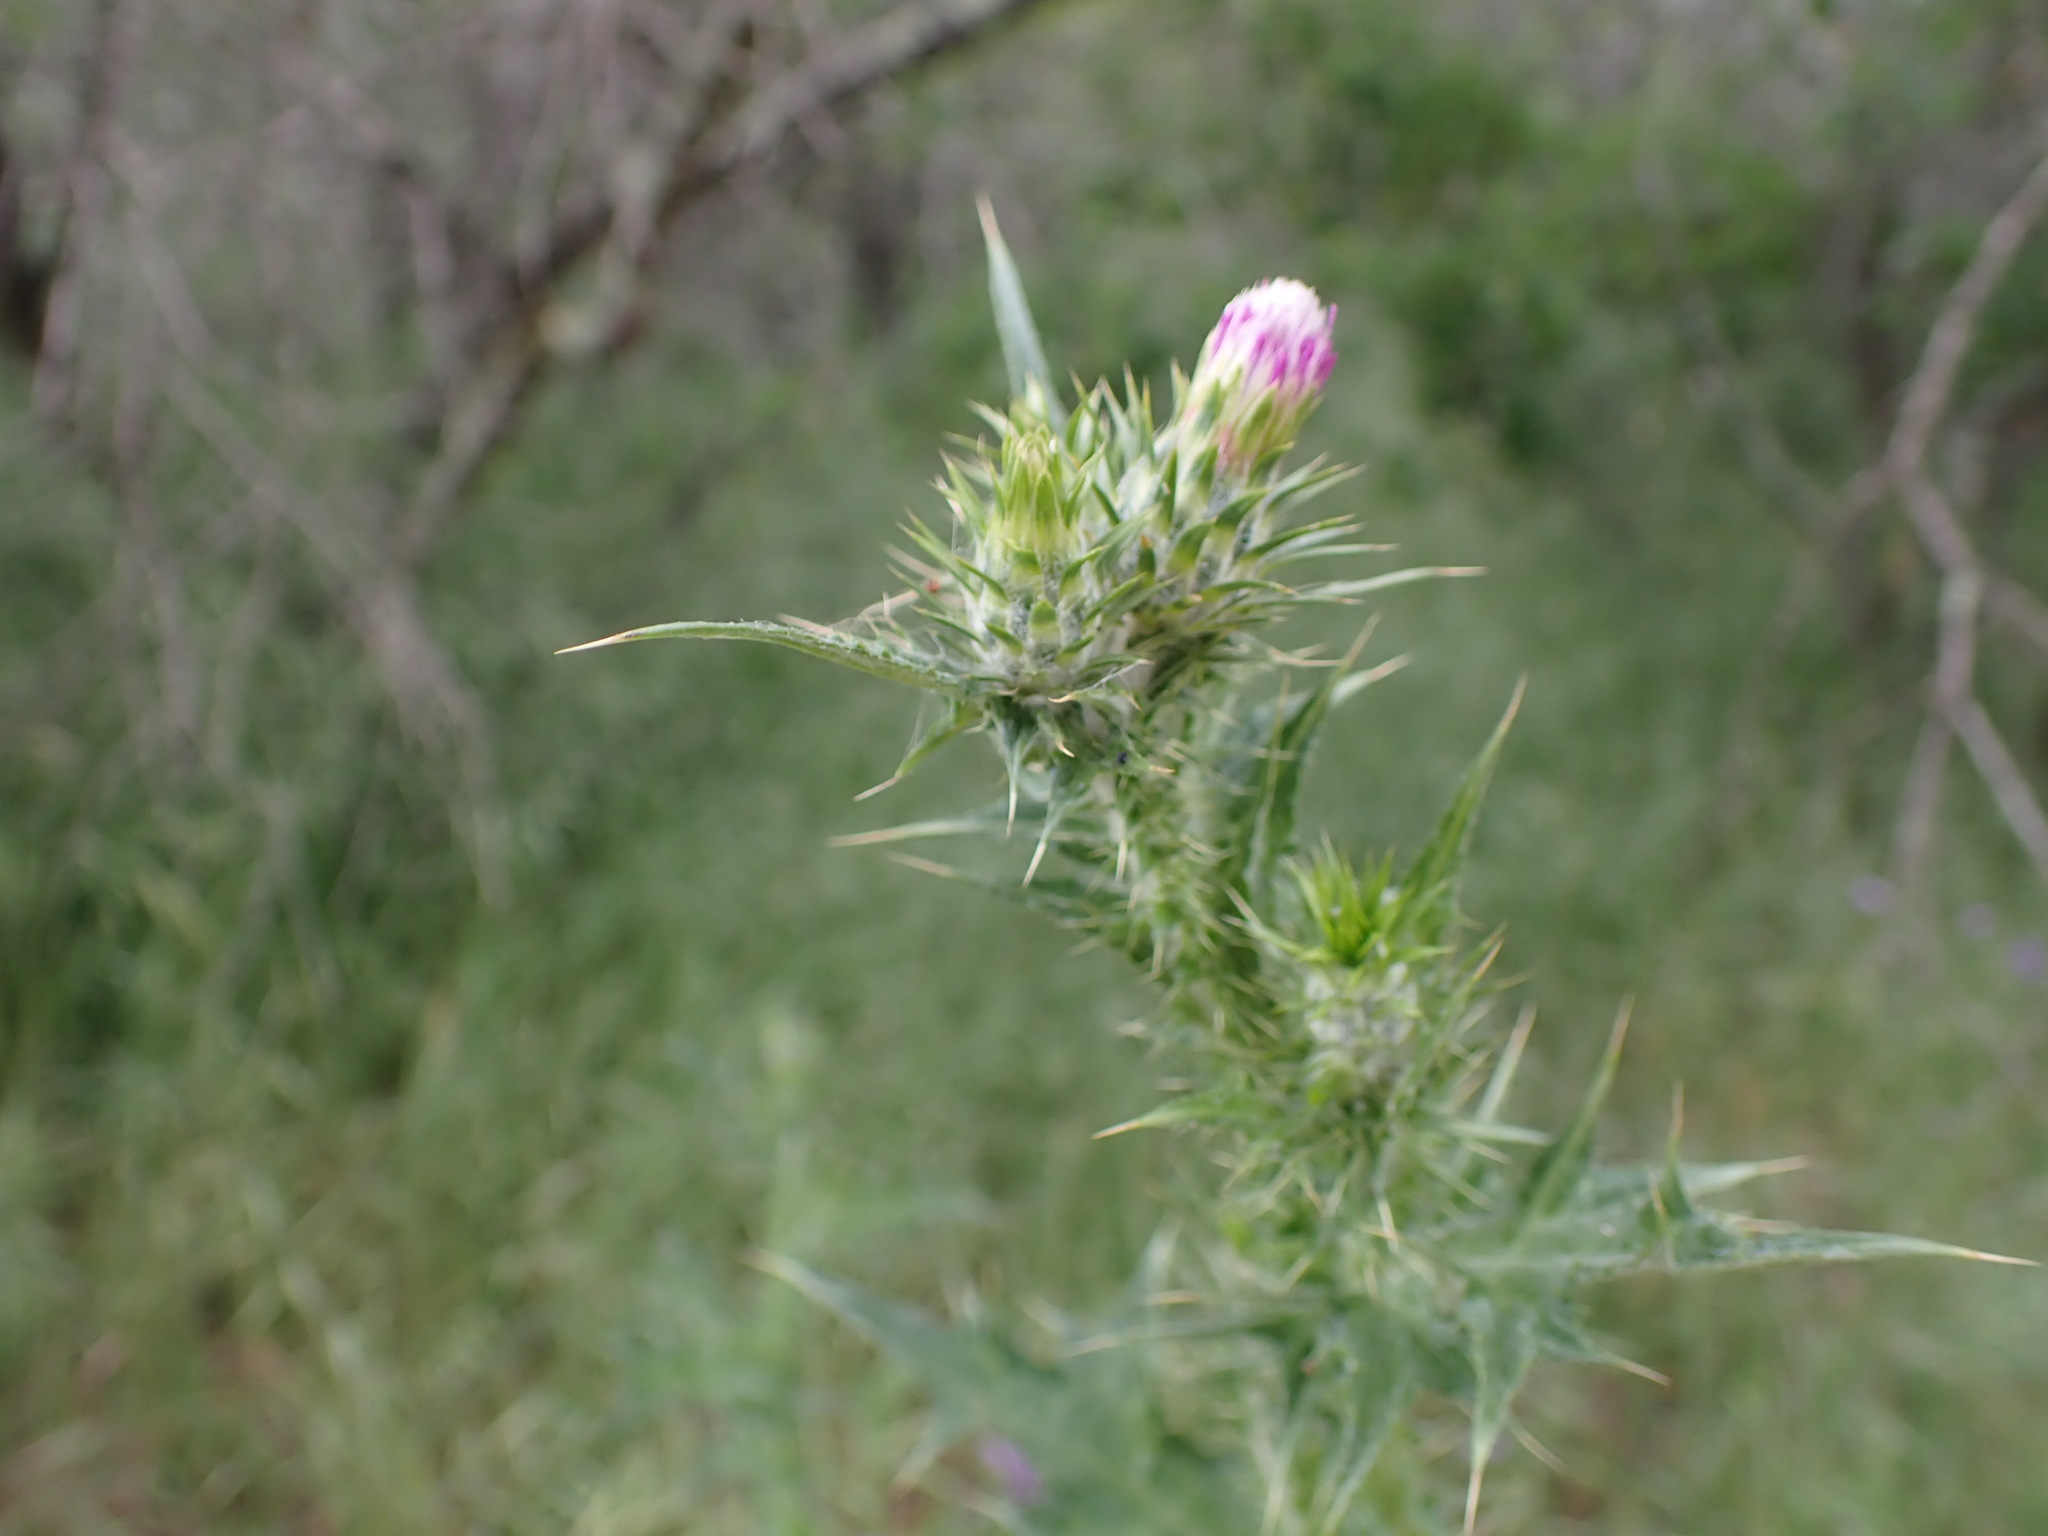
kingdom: Plantae
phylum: Tracheophyta
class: Magnoliopsida
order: Asterales
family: Asteraceae
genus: Carduus
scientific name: Carduus pycnocephalus
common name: Plymouth thistle
